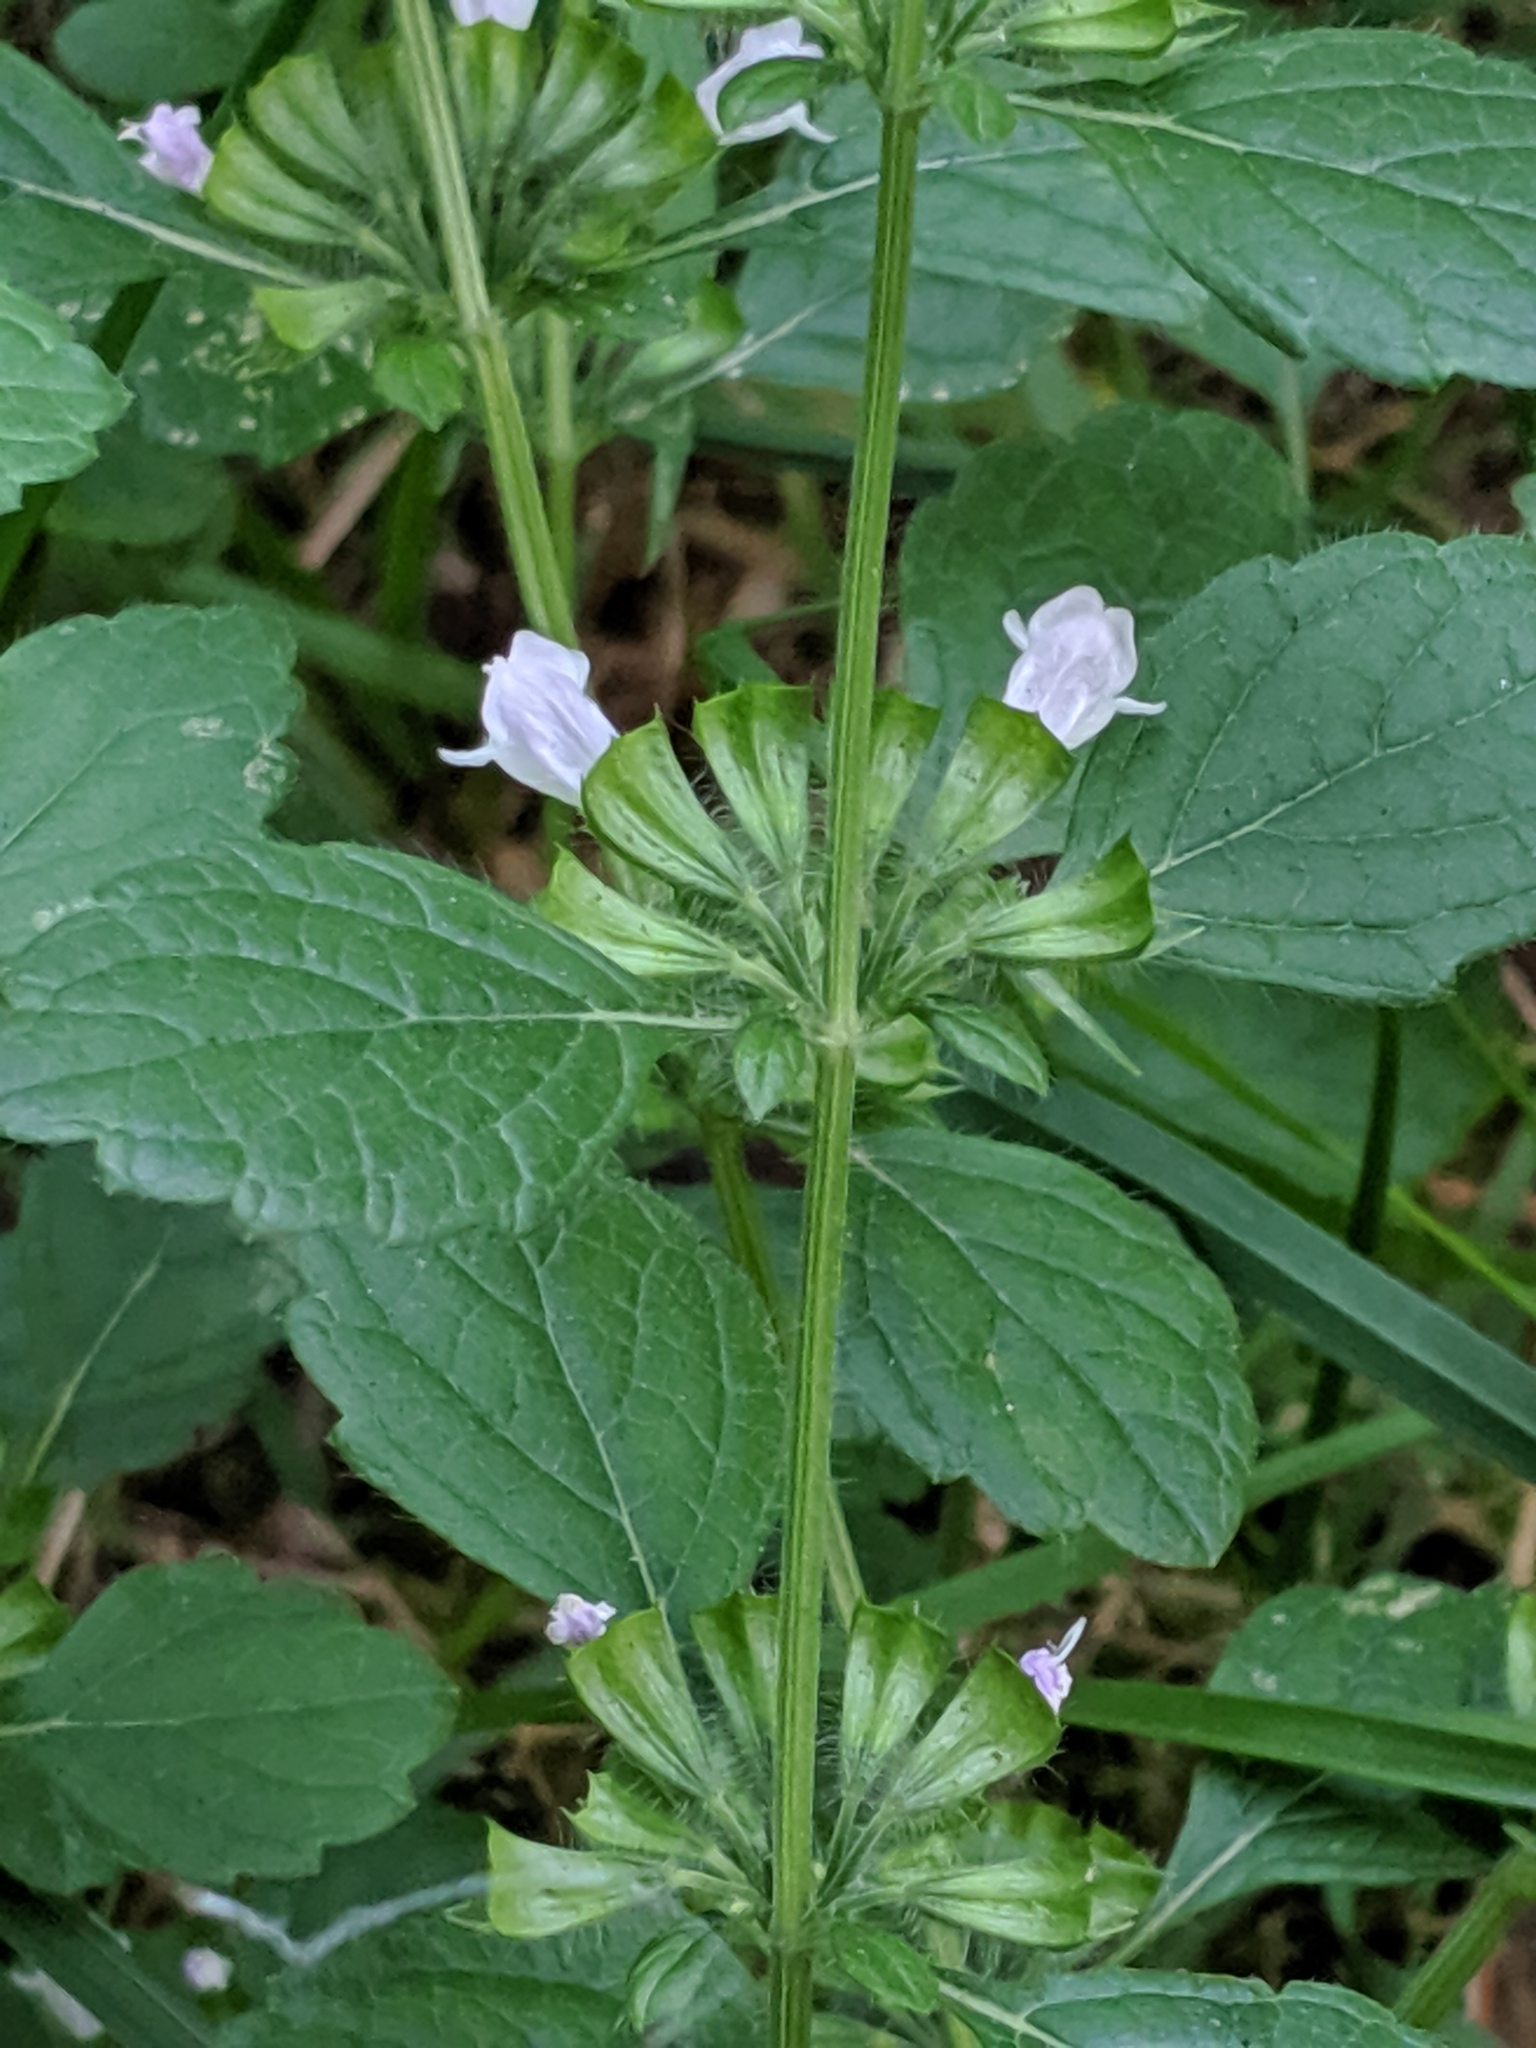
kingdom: Plantae
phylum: Tracheophyta
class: Magnoliopsida
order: Lamiales
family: Lamiaceae
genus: Melissa
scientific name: Melissa officinalis
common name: Balm
